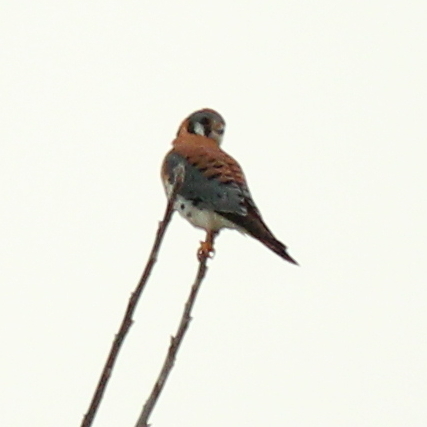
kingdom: Animalia
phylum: Chordata
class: Aves
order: Falconiformes
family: Falconidae
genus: Falco
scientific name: Falco sparverius
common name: American kestrel
